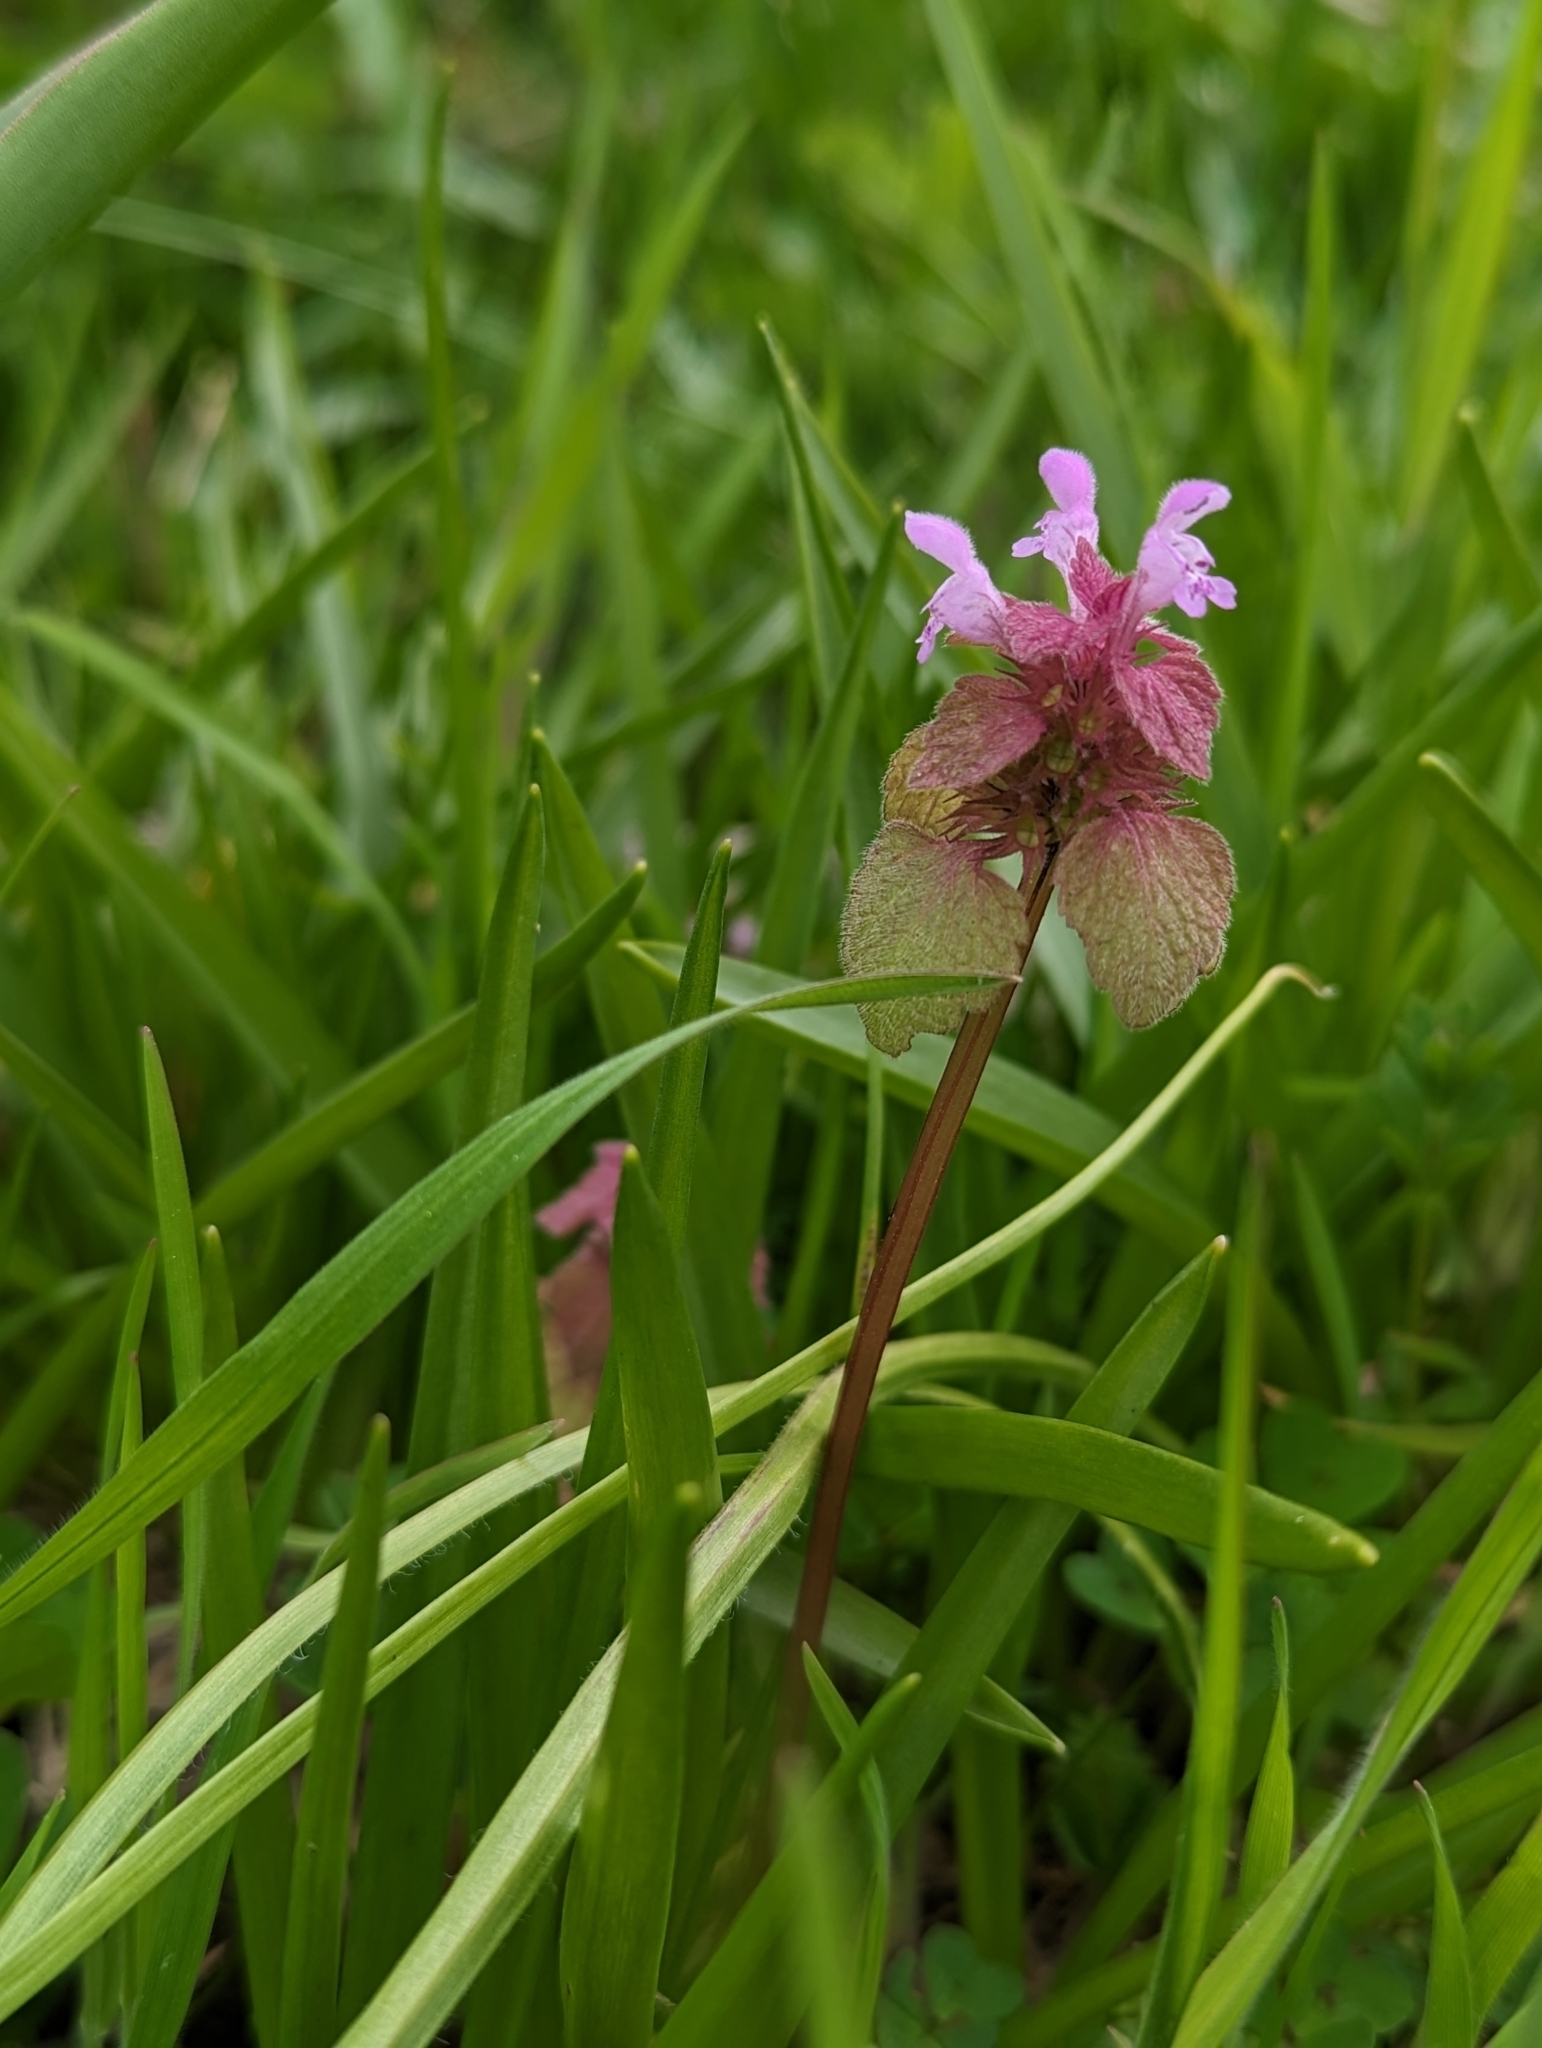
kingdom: Plantae
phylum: Tracheophyta
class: Magnoliopsida
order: Lamiales
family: Lamiaceae
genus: Lamium
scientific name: Lamium purpureum
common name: Red dead-nettle
